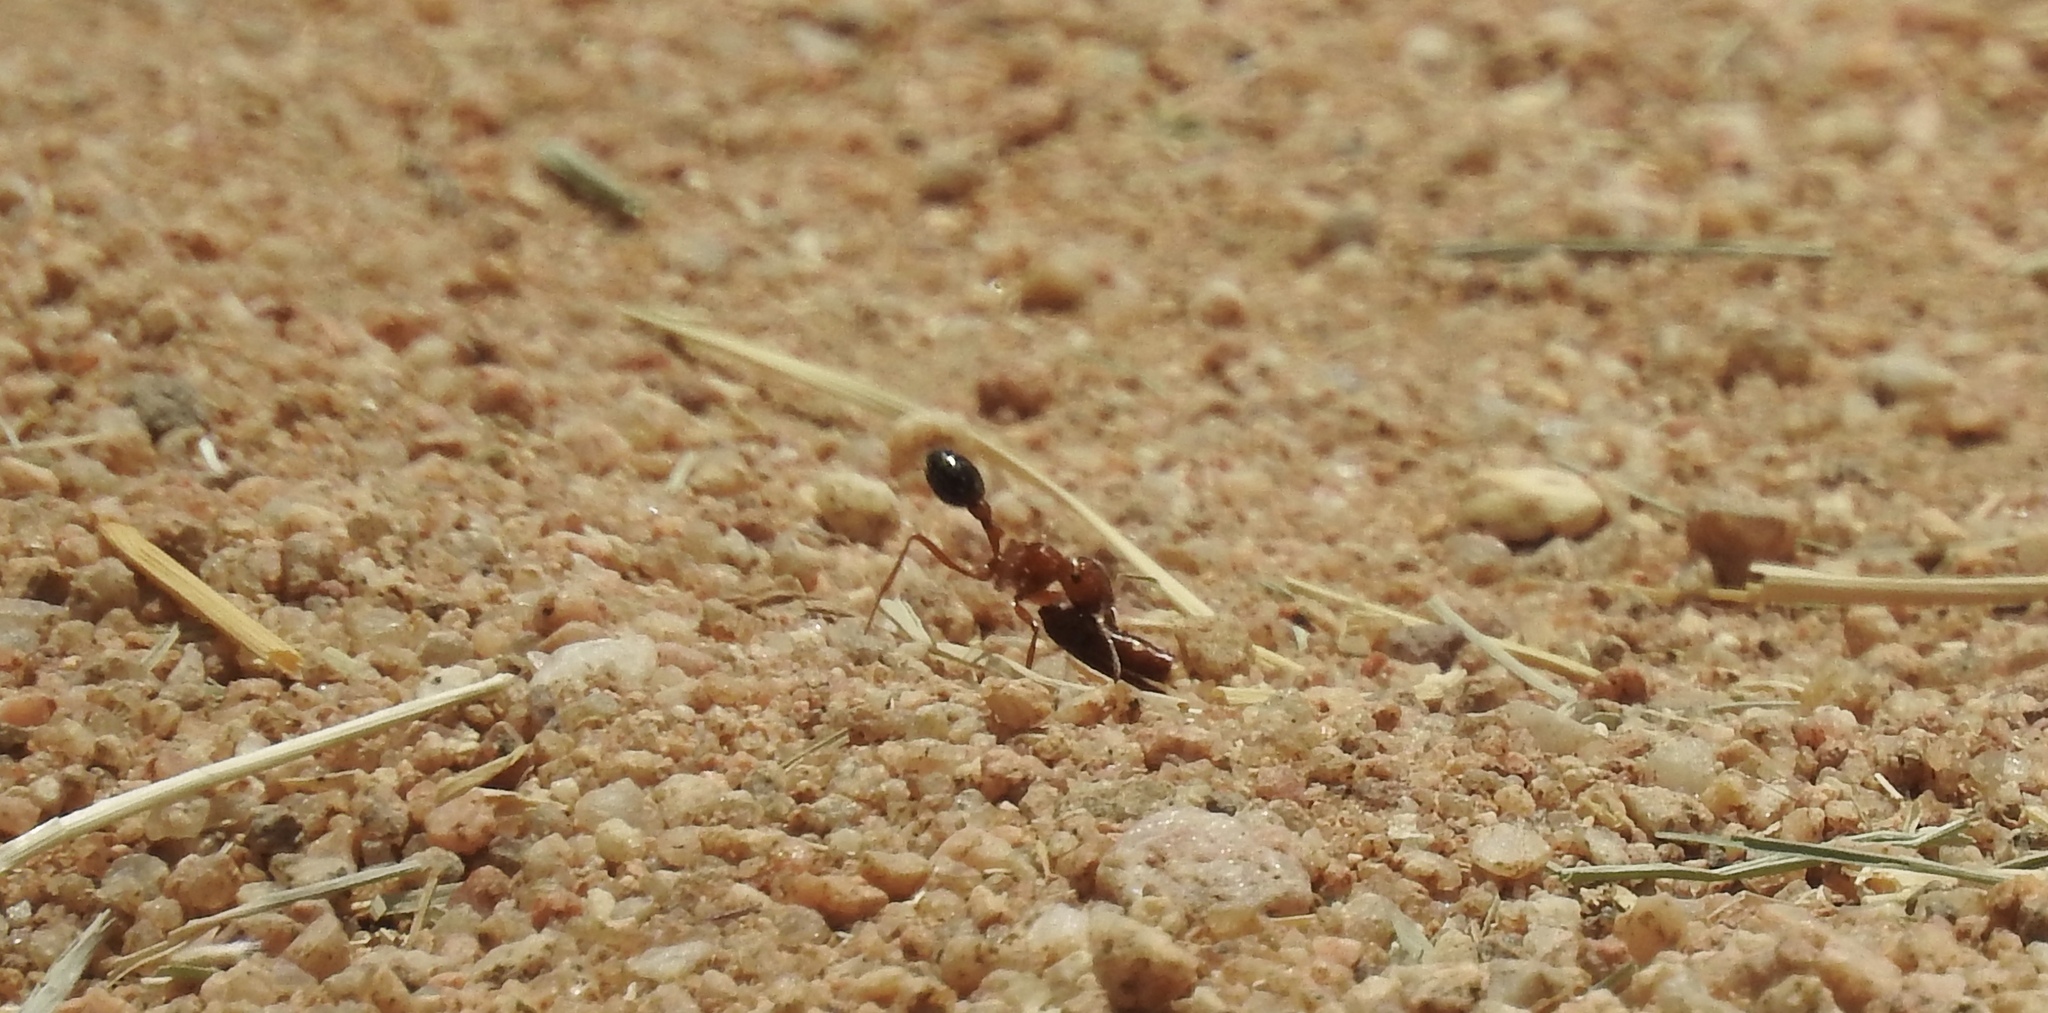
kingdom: Animalia
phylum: Arthropoda
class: Insecta
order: Hymenoptera
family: Formicidae
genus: Pogonomyrmex
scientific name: Pogonomyrmex californicus
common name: California harvester ant
